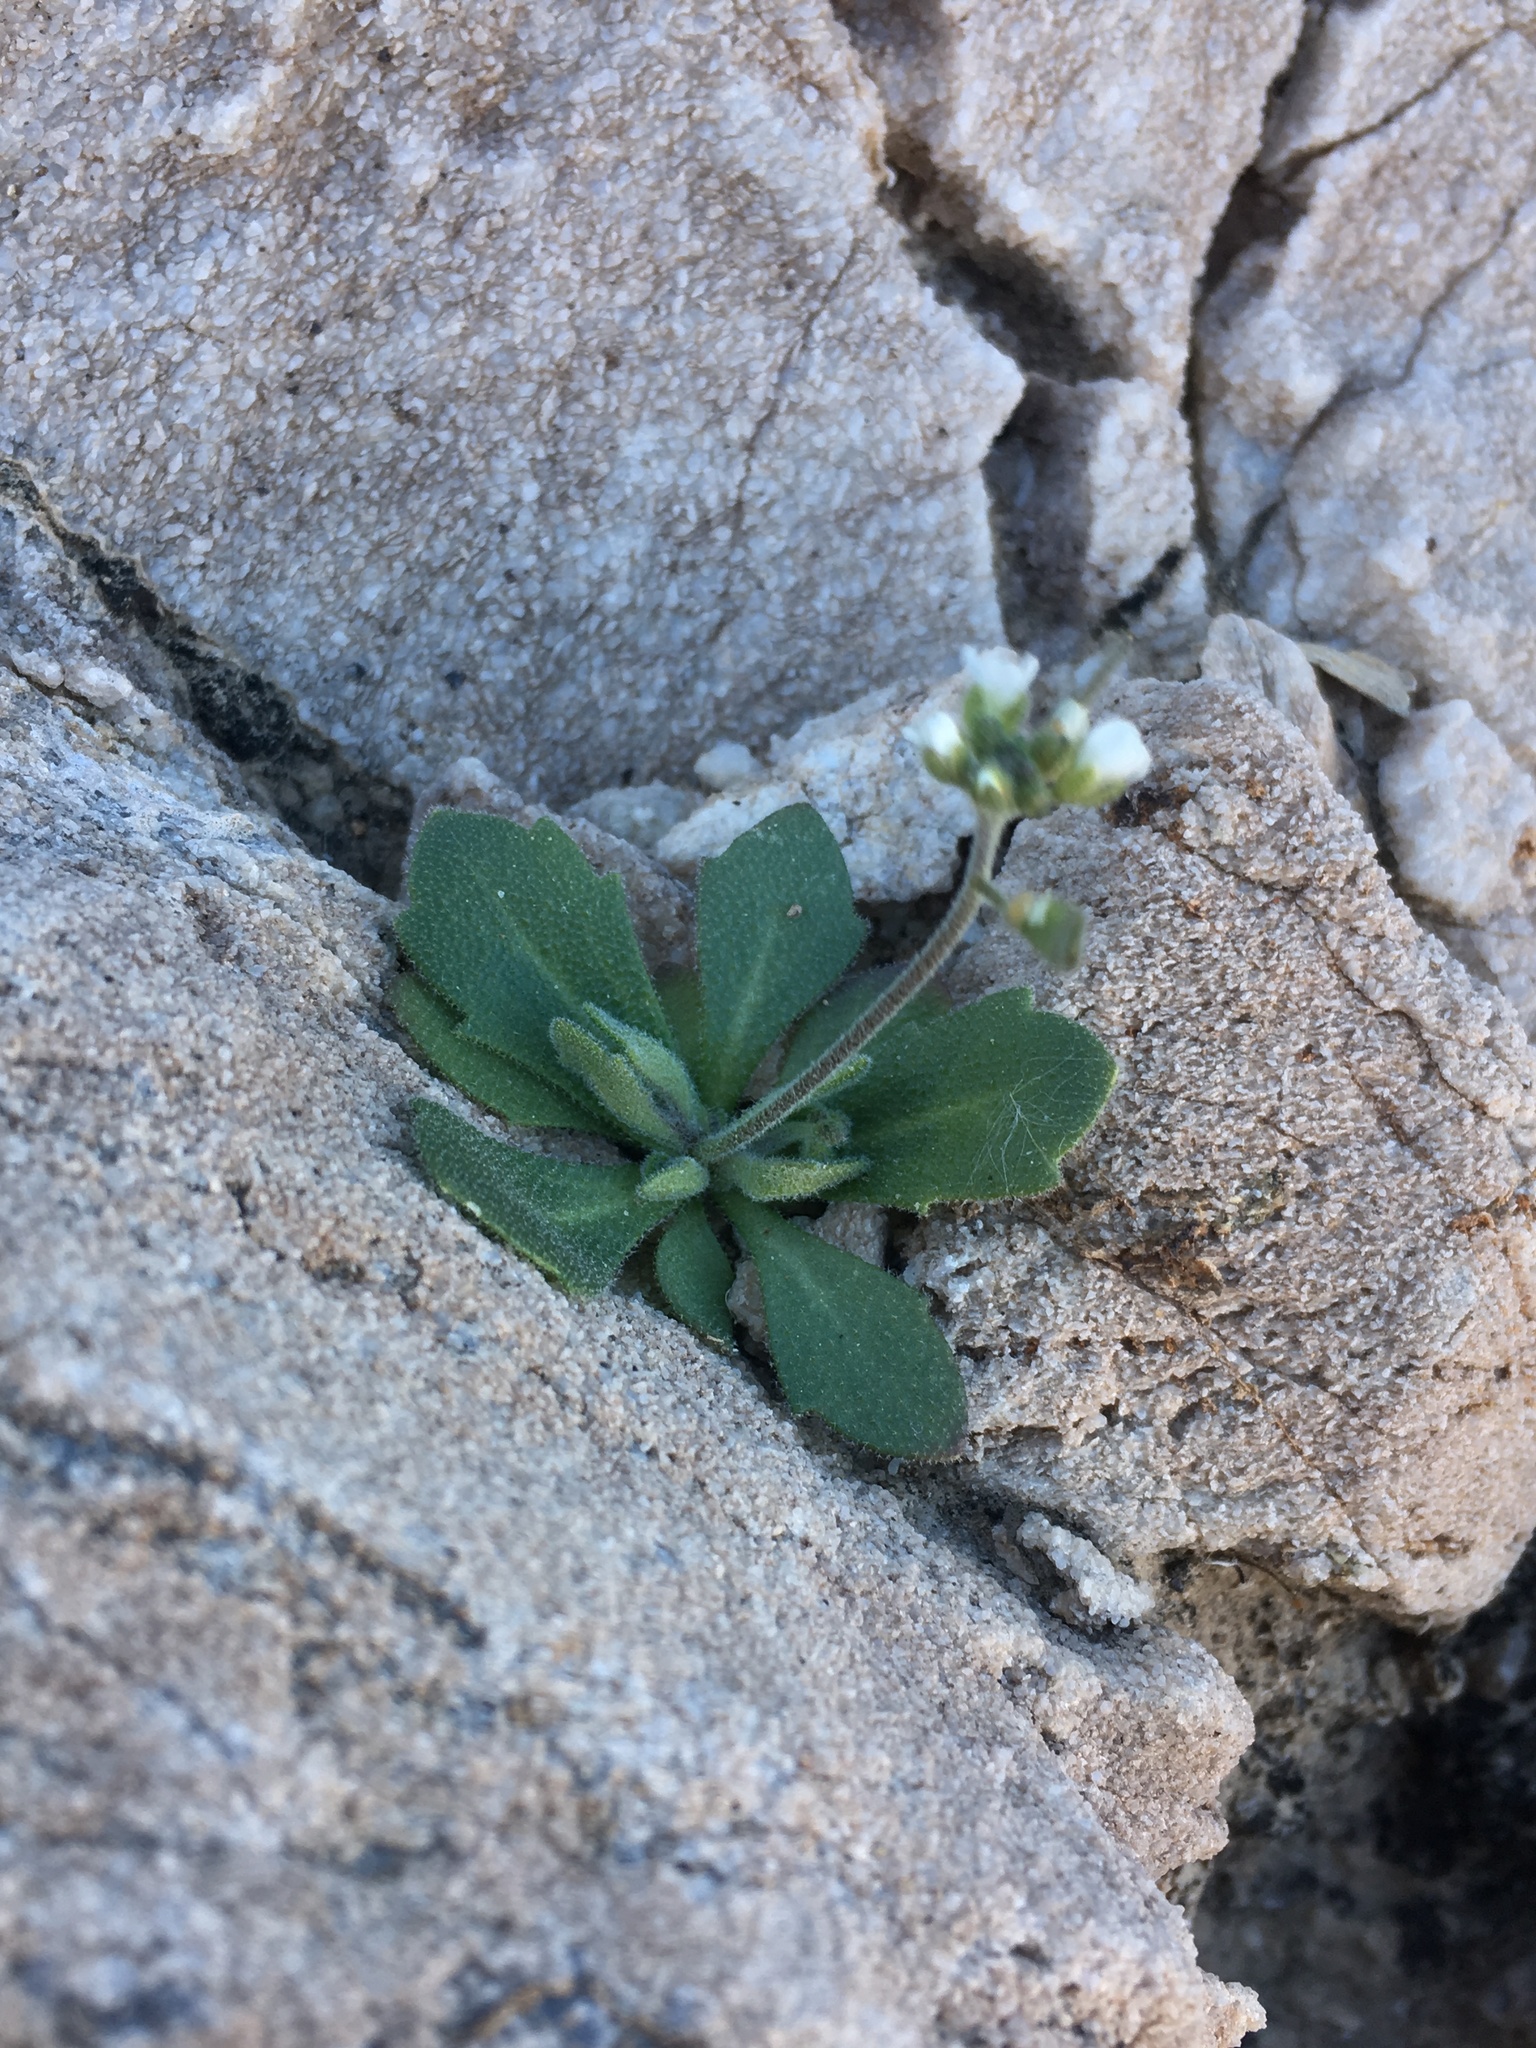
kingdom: Plantae
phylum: Tracheophyta
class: Magnoliopsida
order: Brassicales
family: Brassicaceae
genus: Tomostima
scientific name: Tomostima cuneifolia
